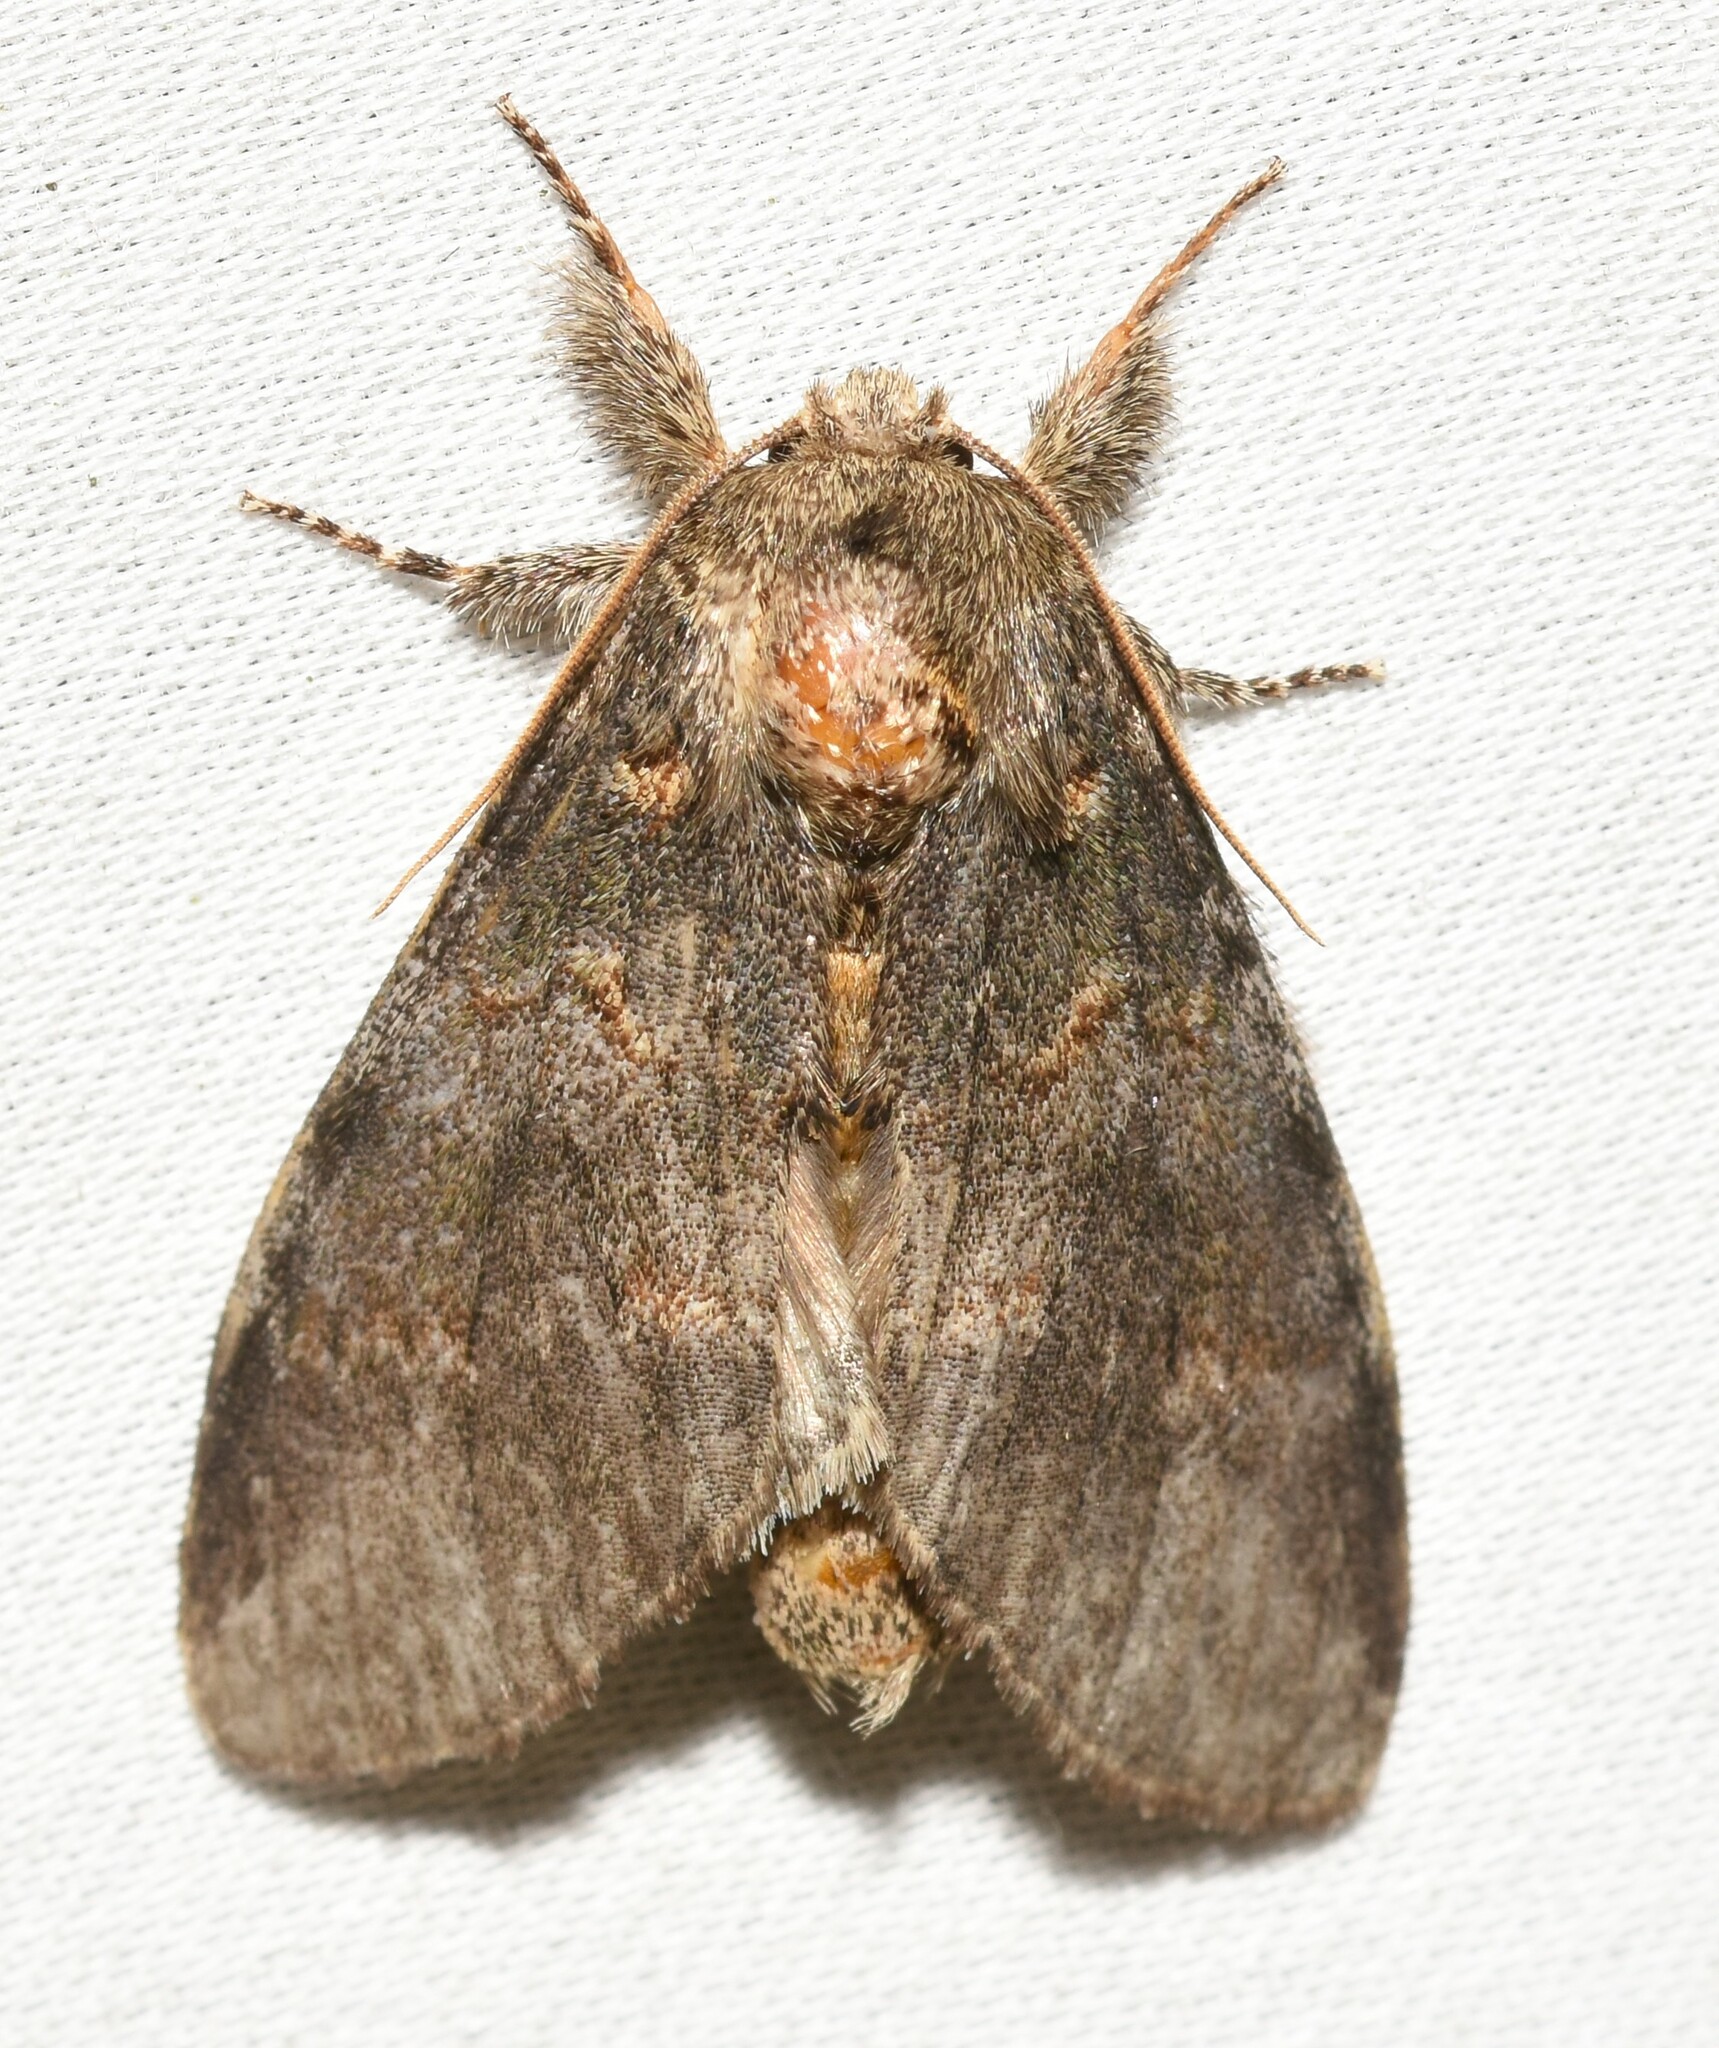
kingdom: Animalia
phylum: Arthropoda
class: Insecta
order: Lepidoptera
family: Notodontidae
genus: Peridea
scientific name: Peridea angulosa
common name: Angulose prominent
